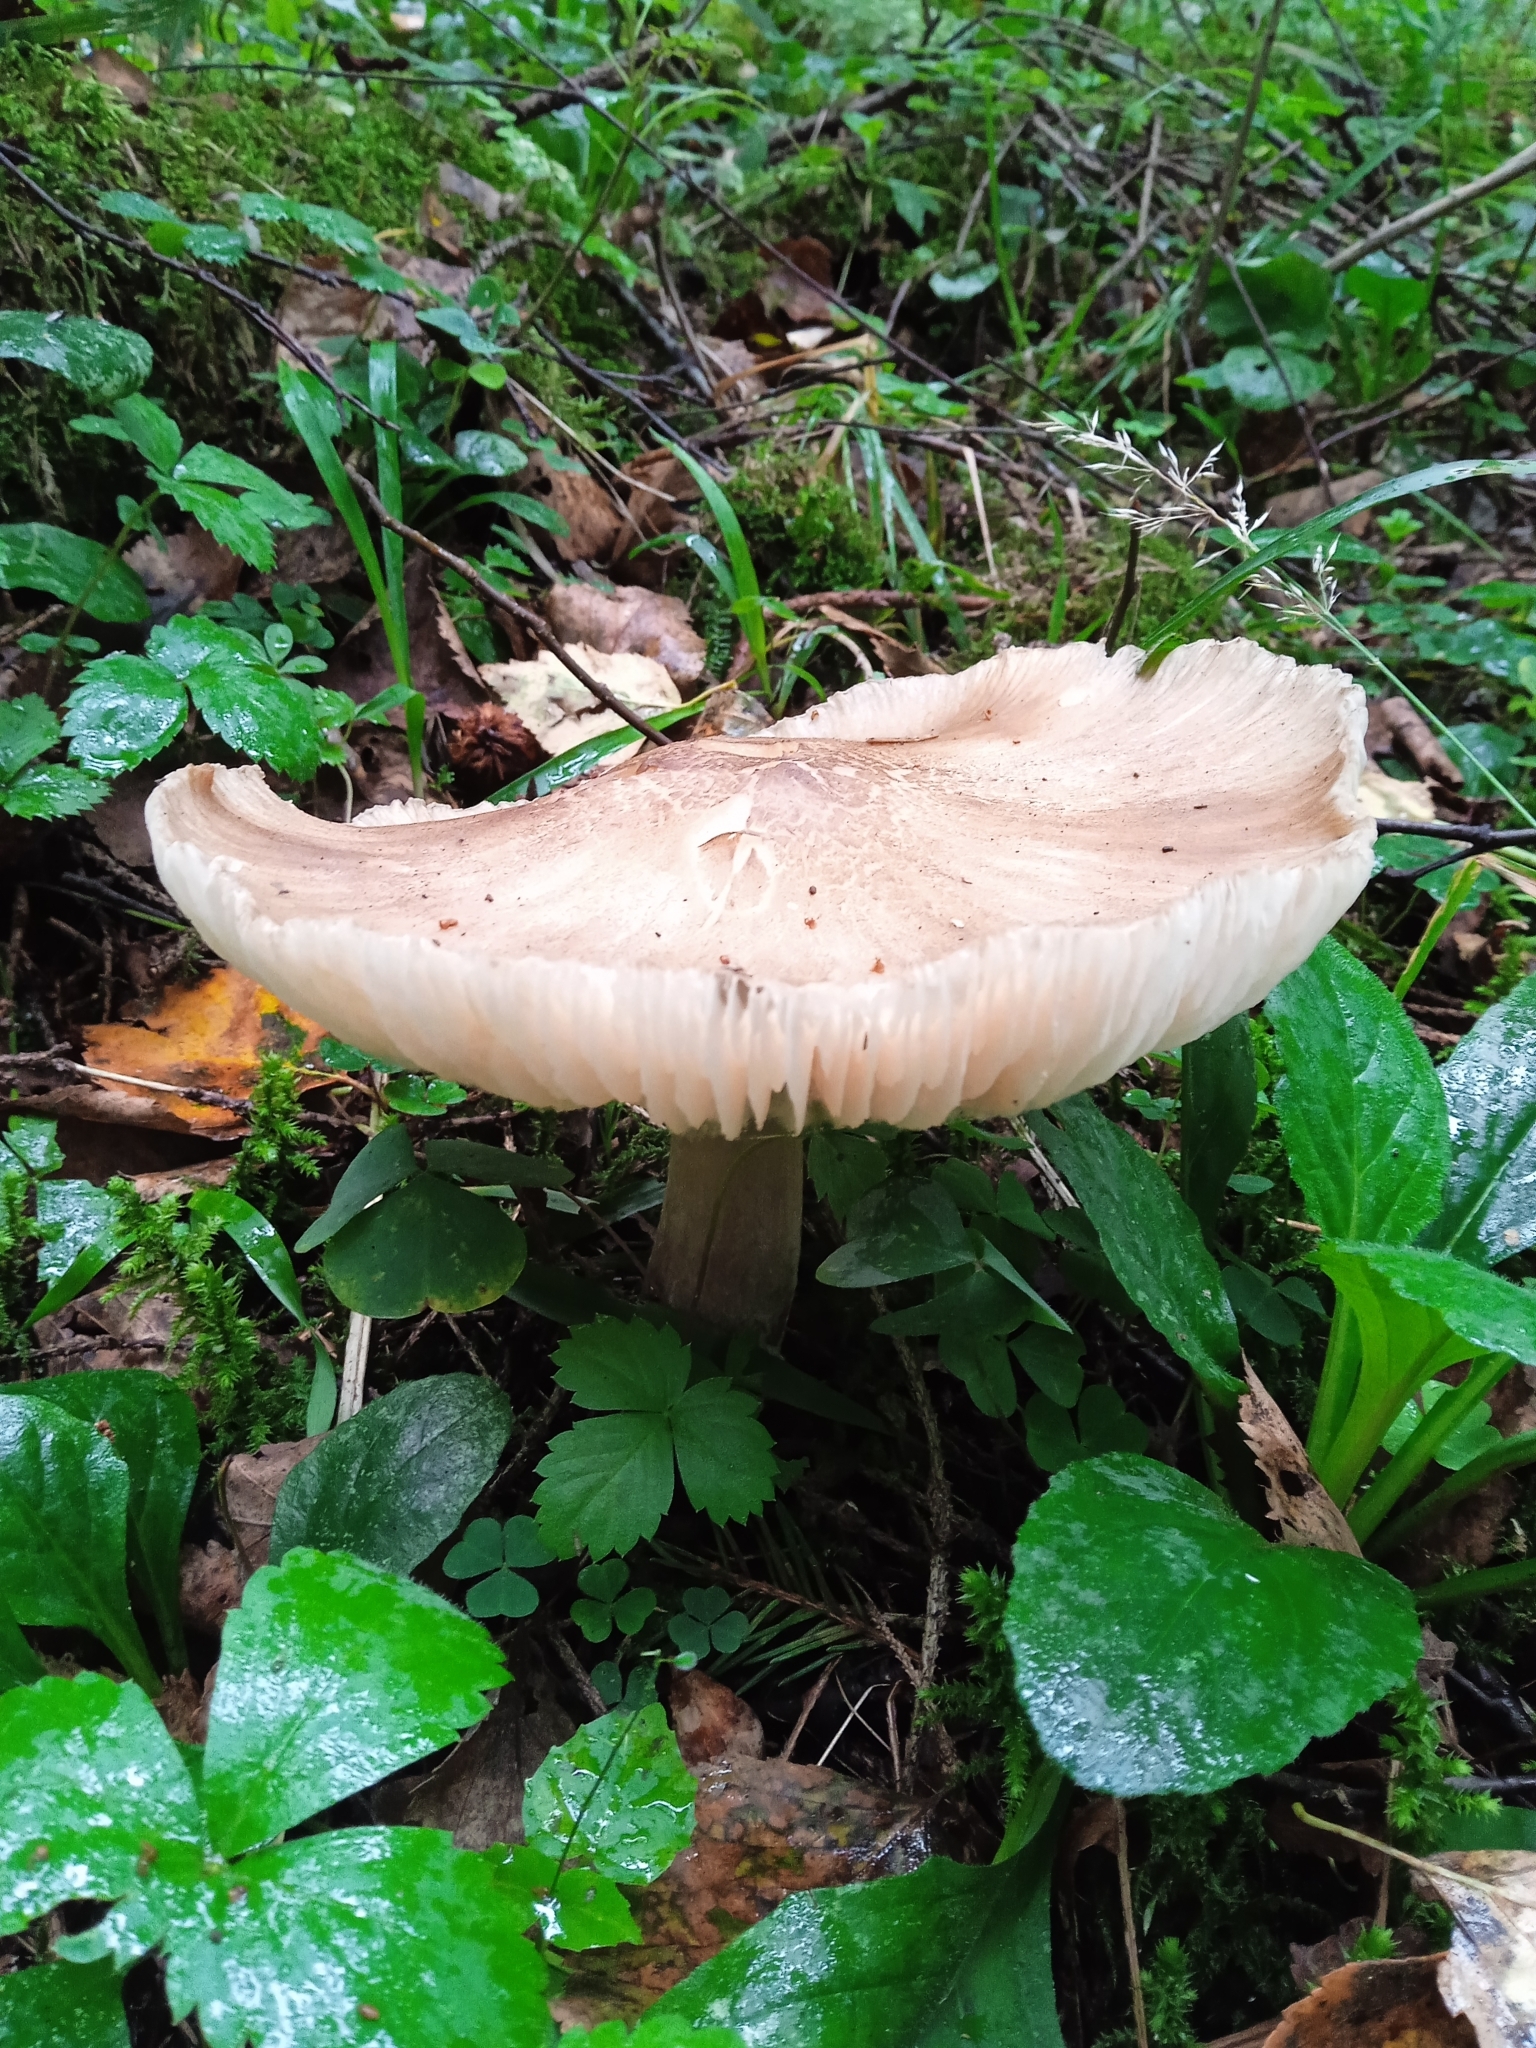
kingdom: Fungi
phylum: Basidiomycota
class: Agaricomycetes
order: Agaricales
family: Tricholomataceae
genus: Megacollybia
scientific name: Megacollybia platyphylla
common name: Whitelaced shank
